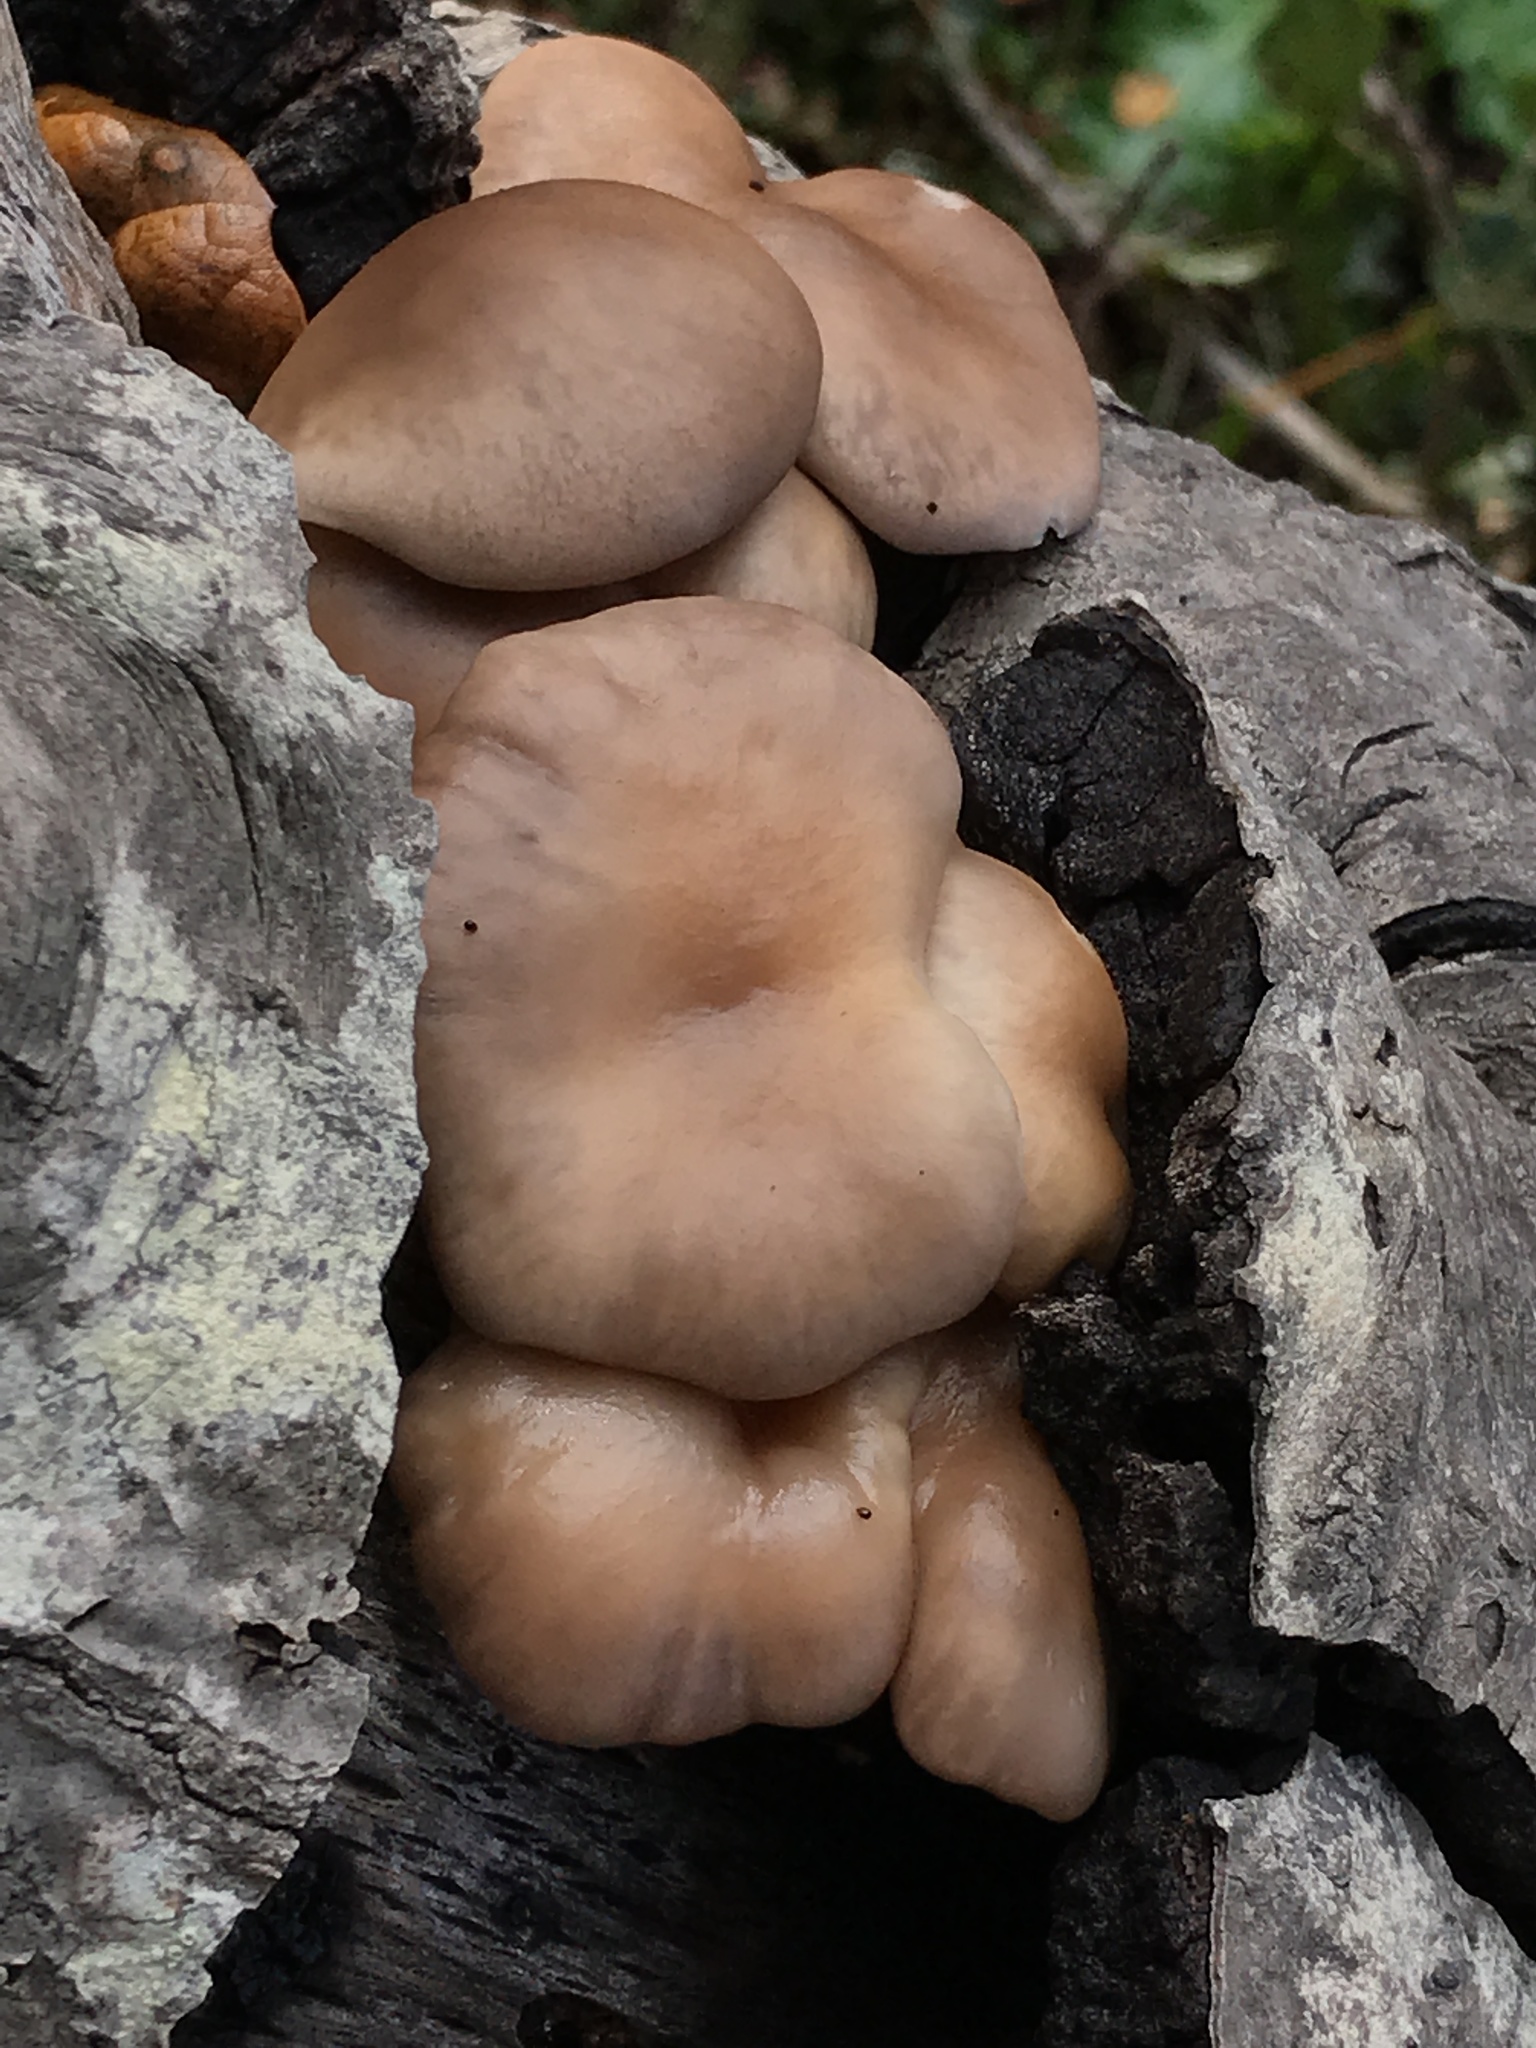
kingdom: Fungi
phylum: Basidiomycota
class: Agaricomycetes
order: Agaricales
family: Pleurotaceae
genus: Pleurotus
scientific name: Pleurotus ostreatus
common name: Oyster mushroom
